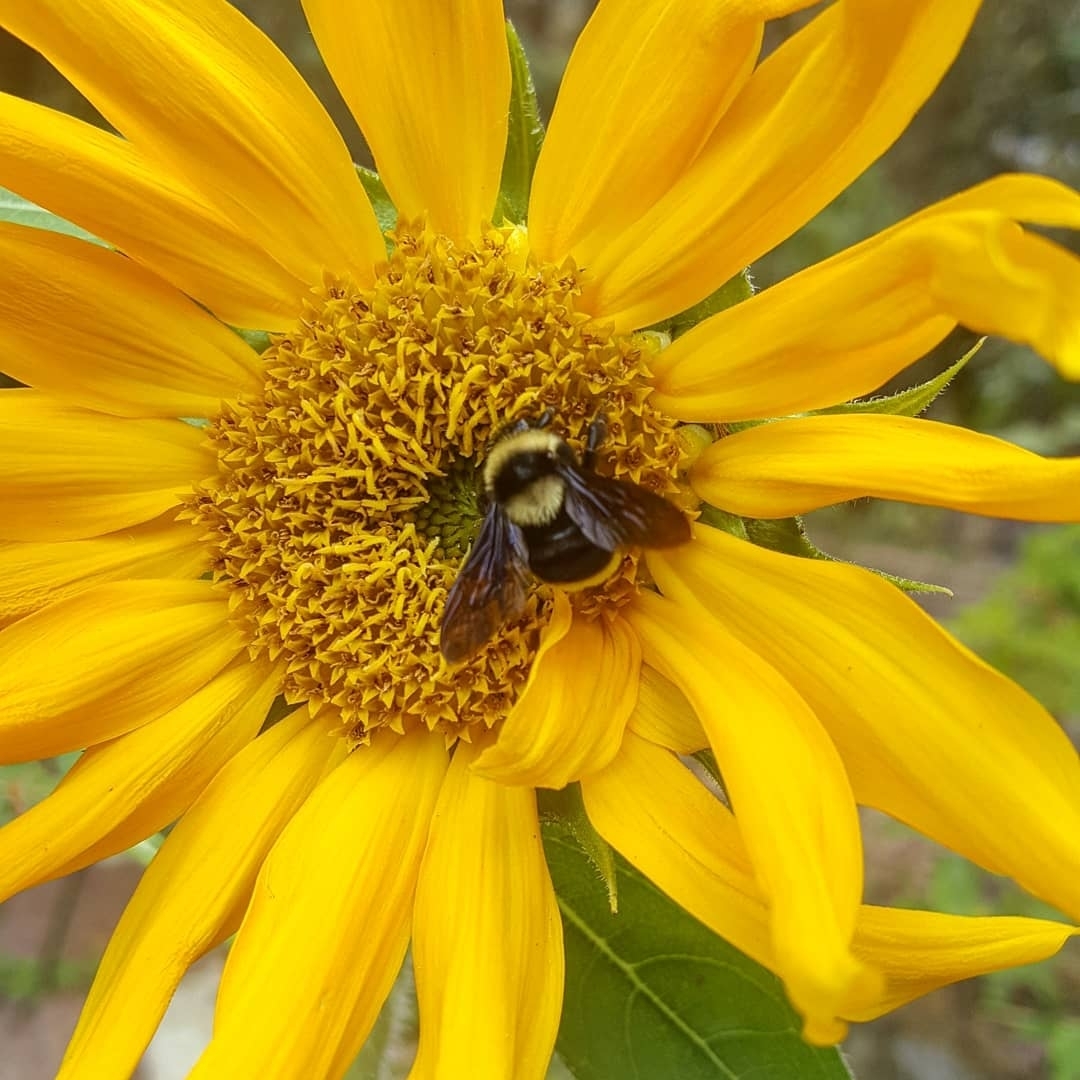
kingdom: Animalia
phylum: Arthropoda
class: Insecta
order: Hymenoptera
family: Apidae
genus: Bombus
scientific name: Bombus medius
